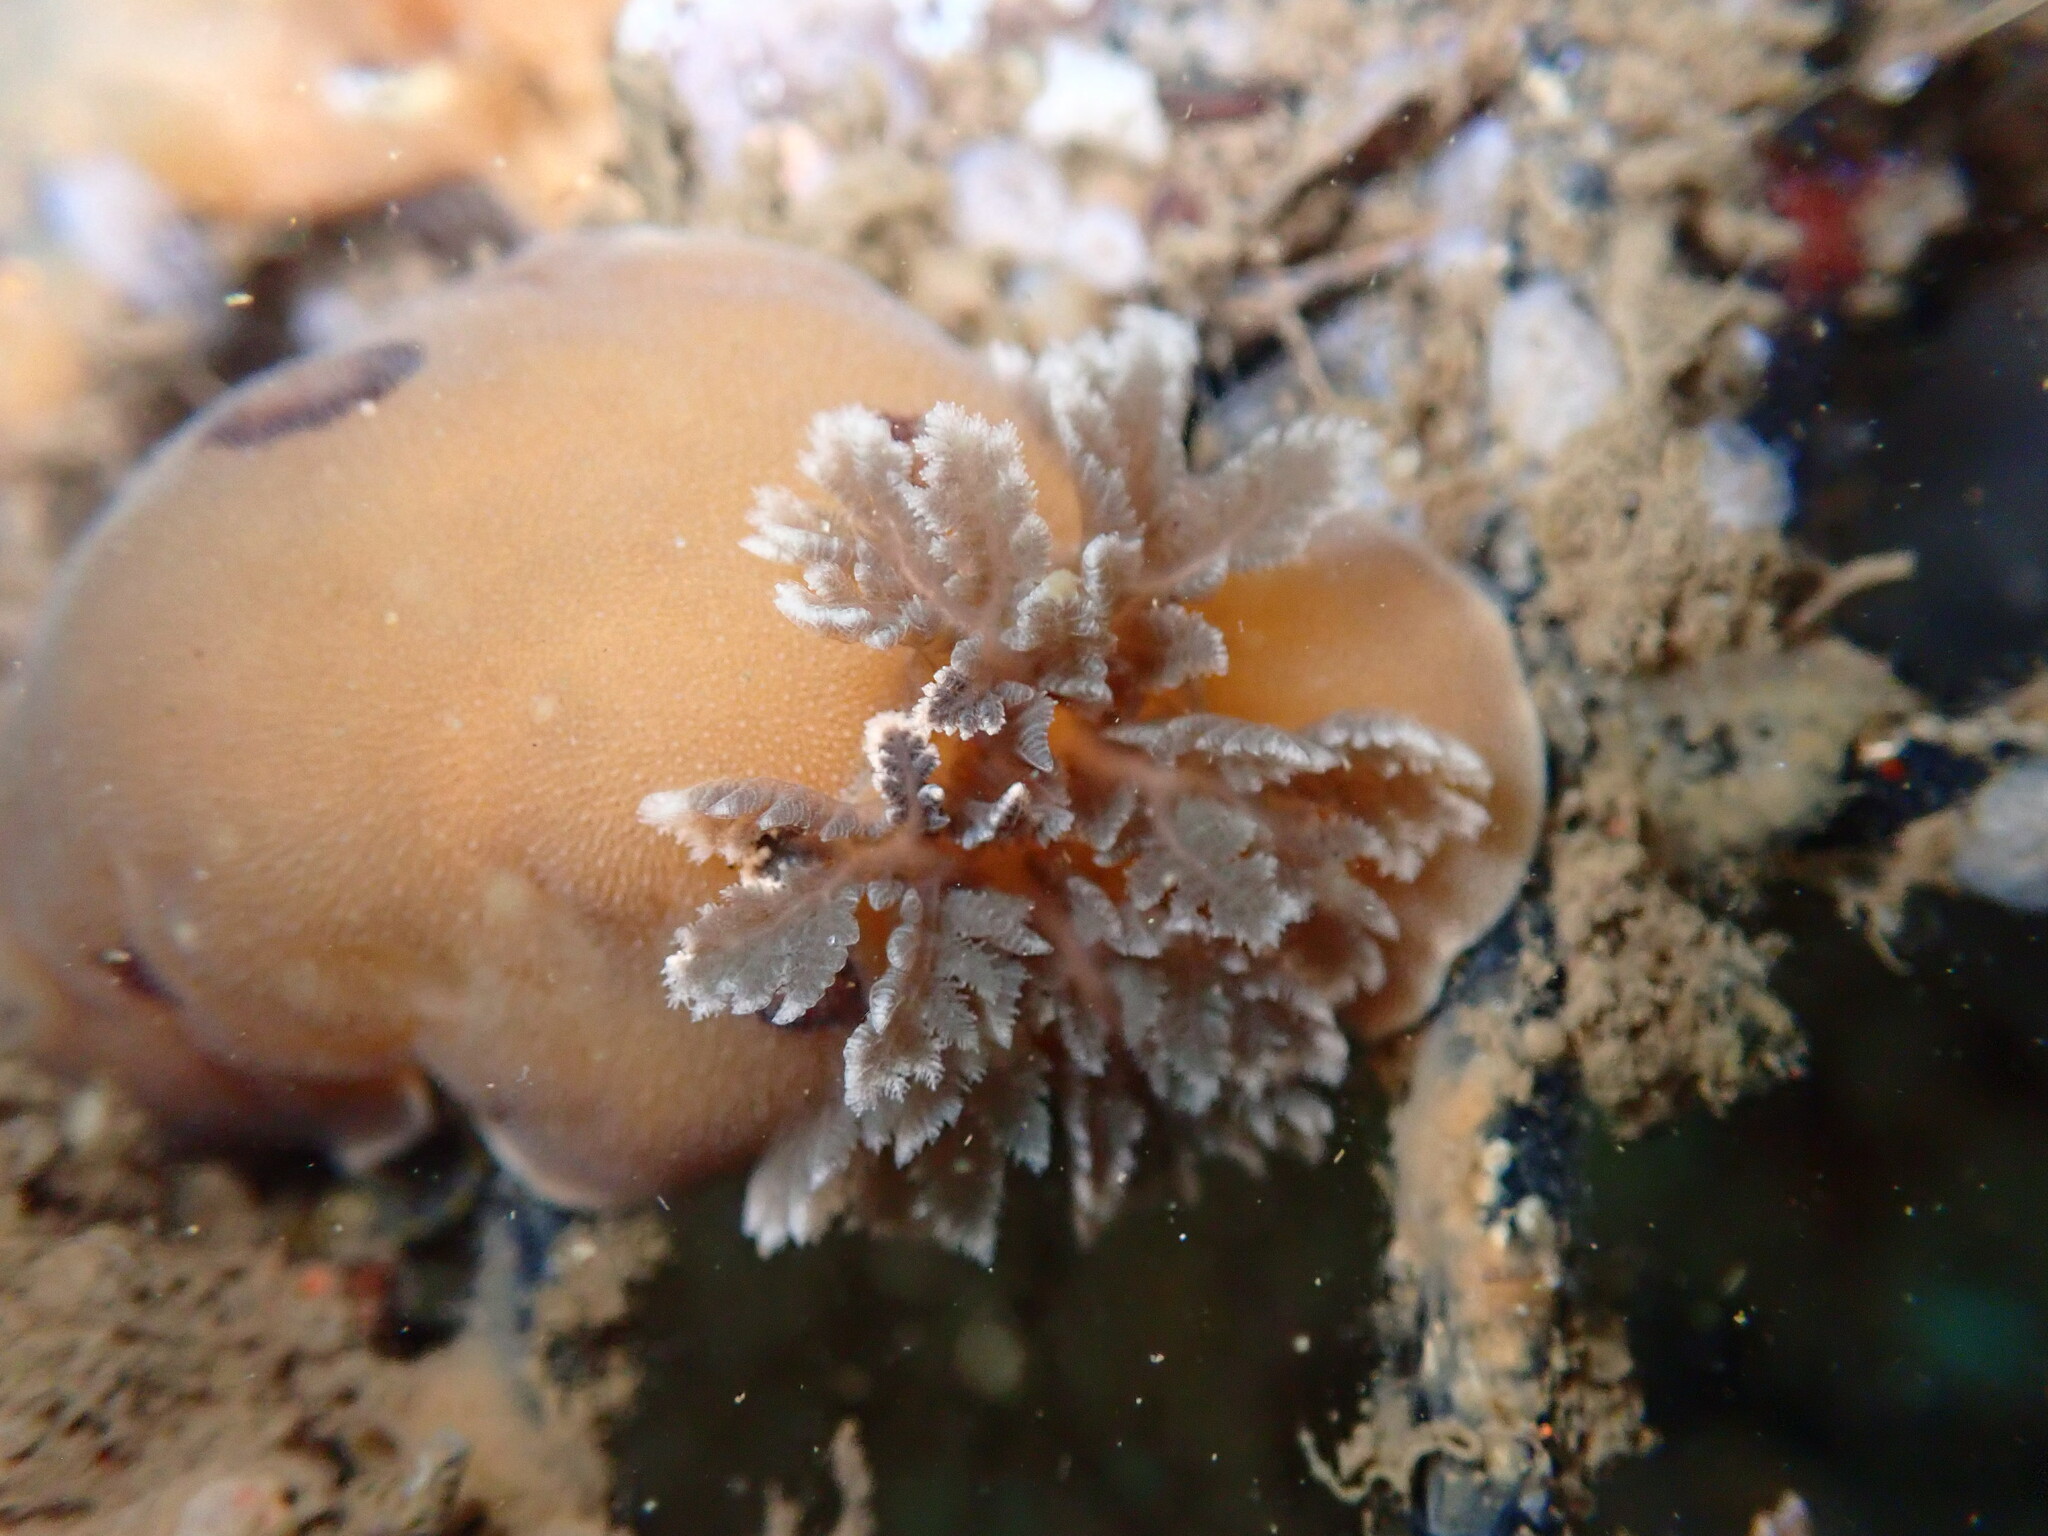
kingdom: Animalia
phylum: Mollusca
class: Gastropoda
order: Nudibranchia
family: Discodorididae
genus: Diaulula
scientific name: Diaulula sandiegensis
